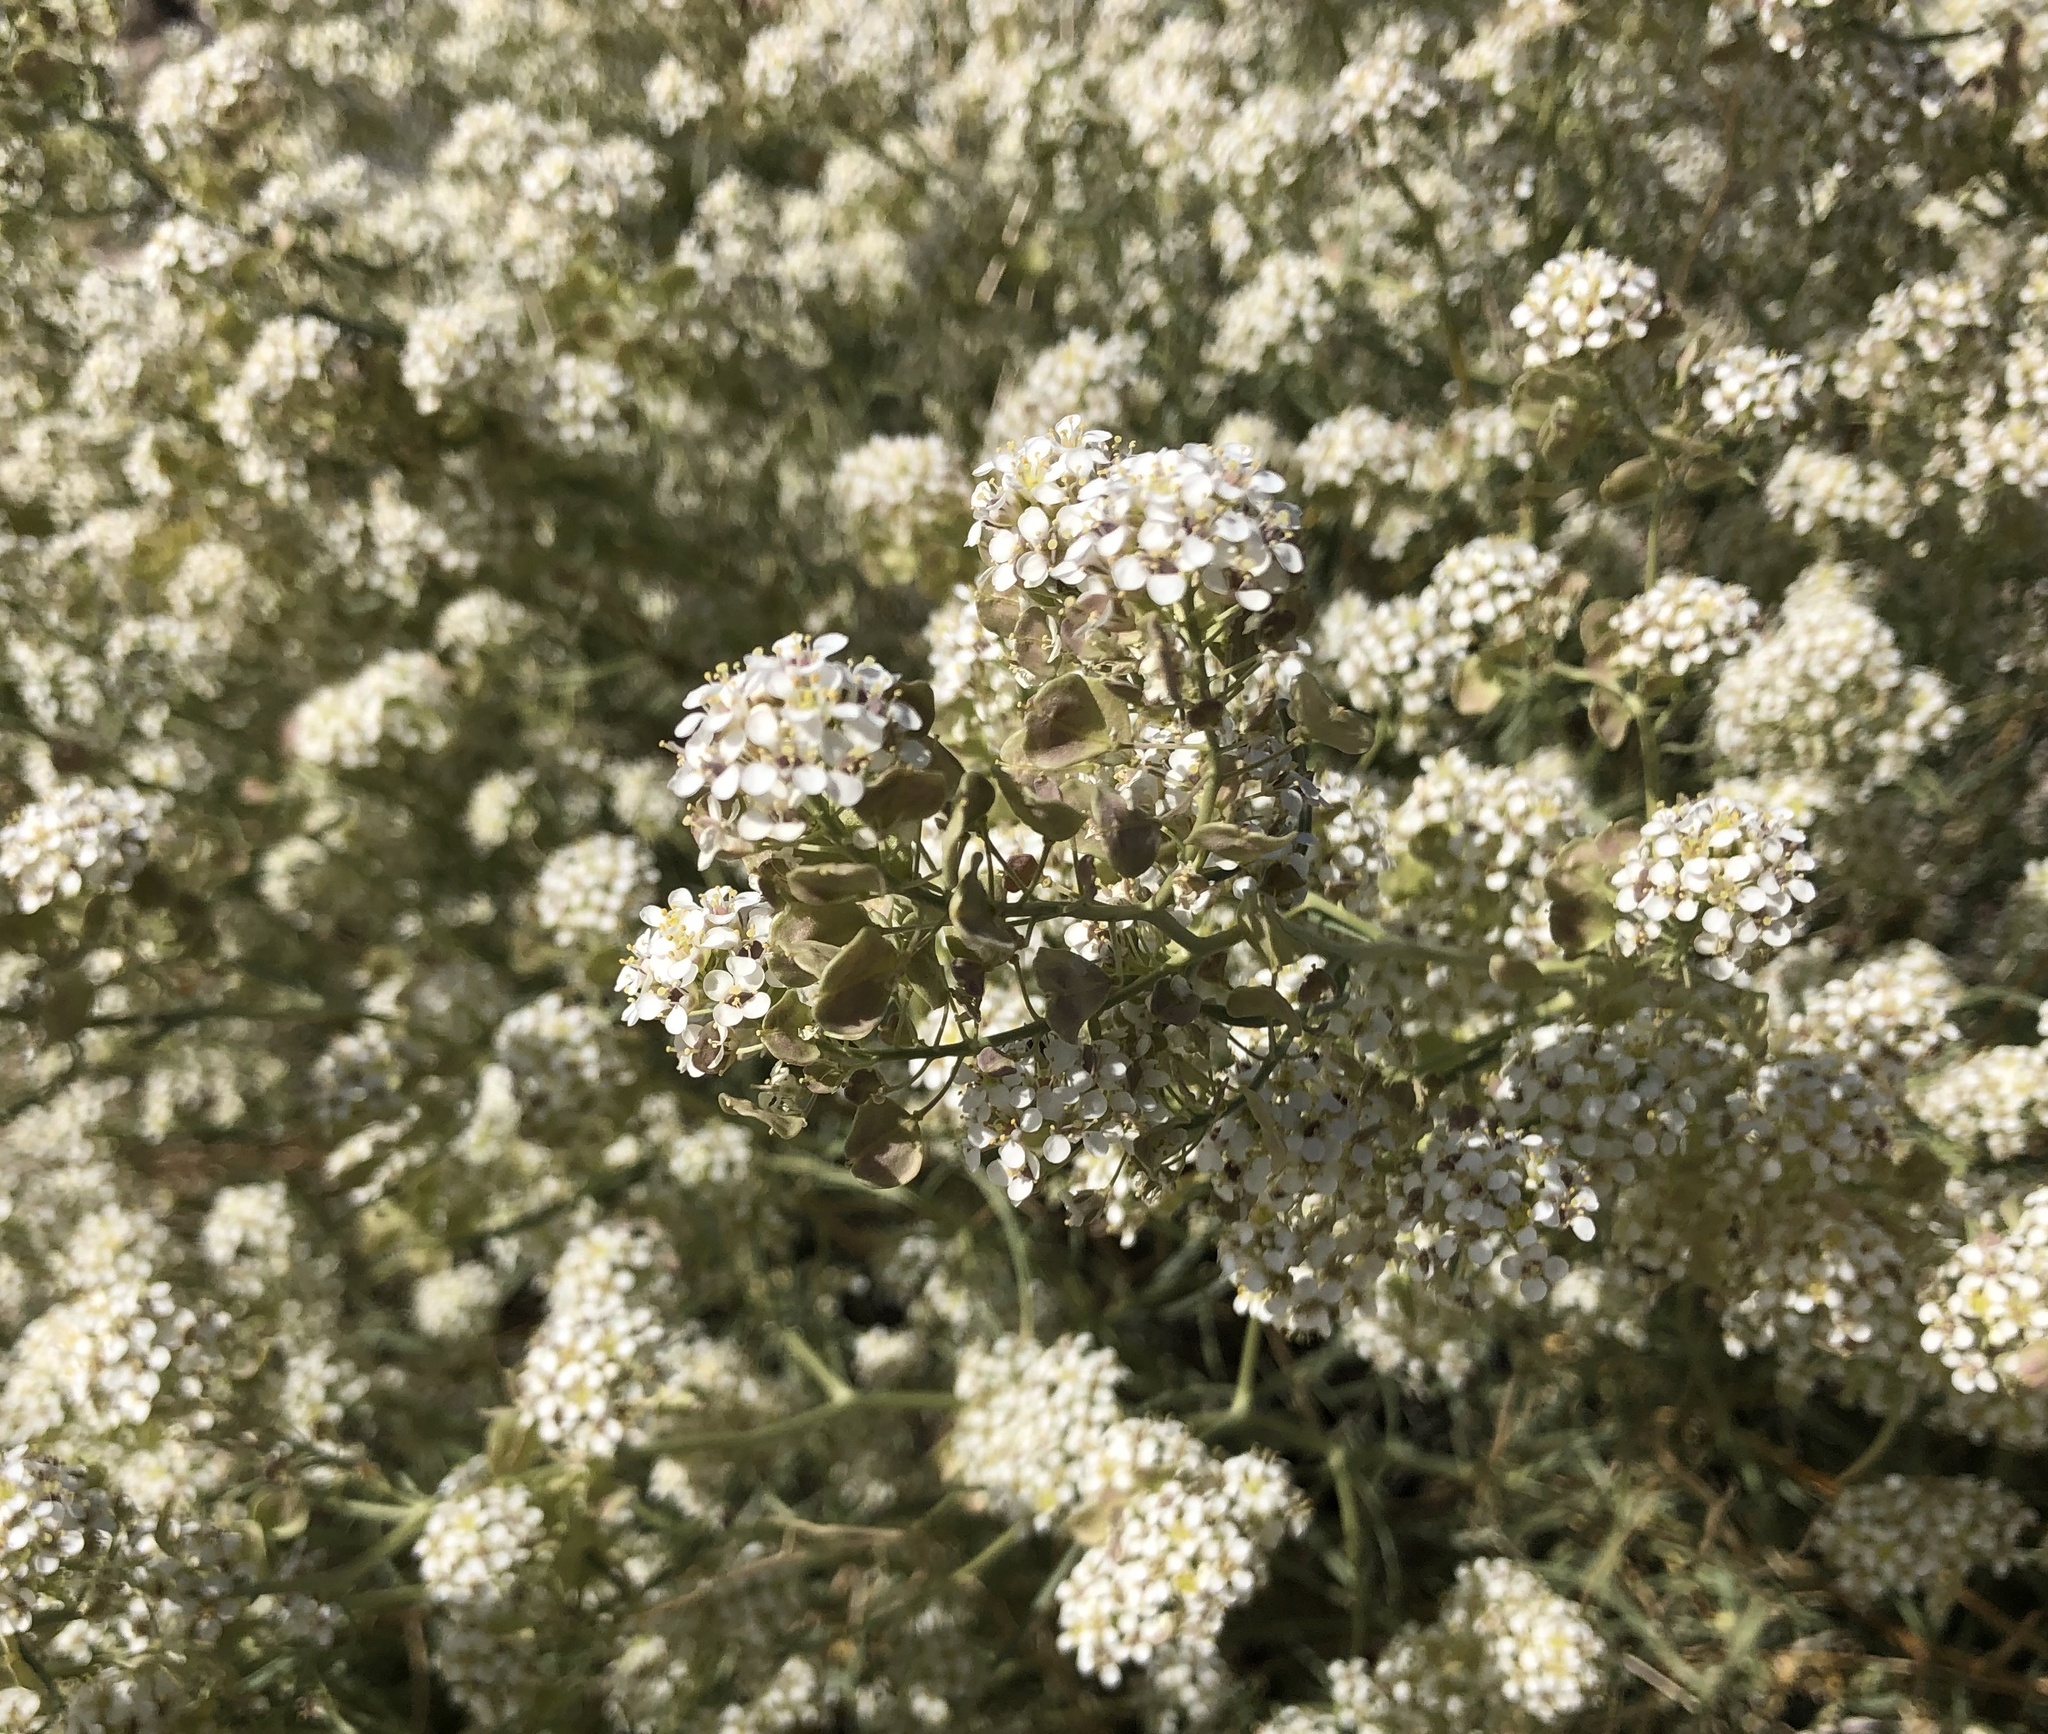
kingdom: Plantae
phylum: Tracheophyta
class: Magnoliopsida
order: Brassicales
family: Brassicaceae
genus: Lepidium
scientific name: Lepidium fremontii
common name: Fremont's pepperwort
